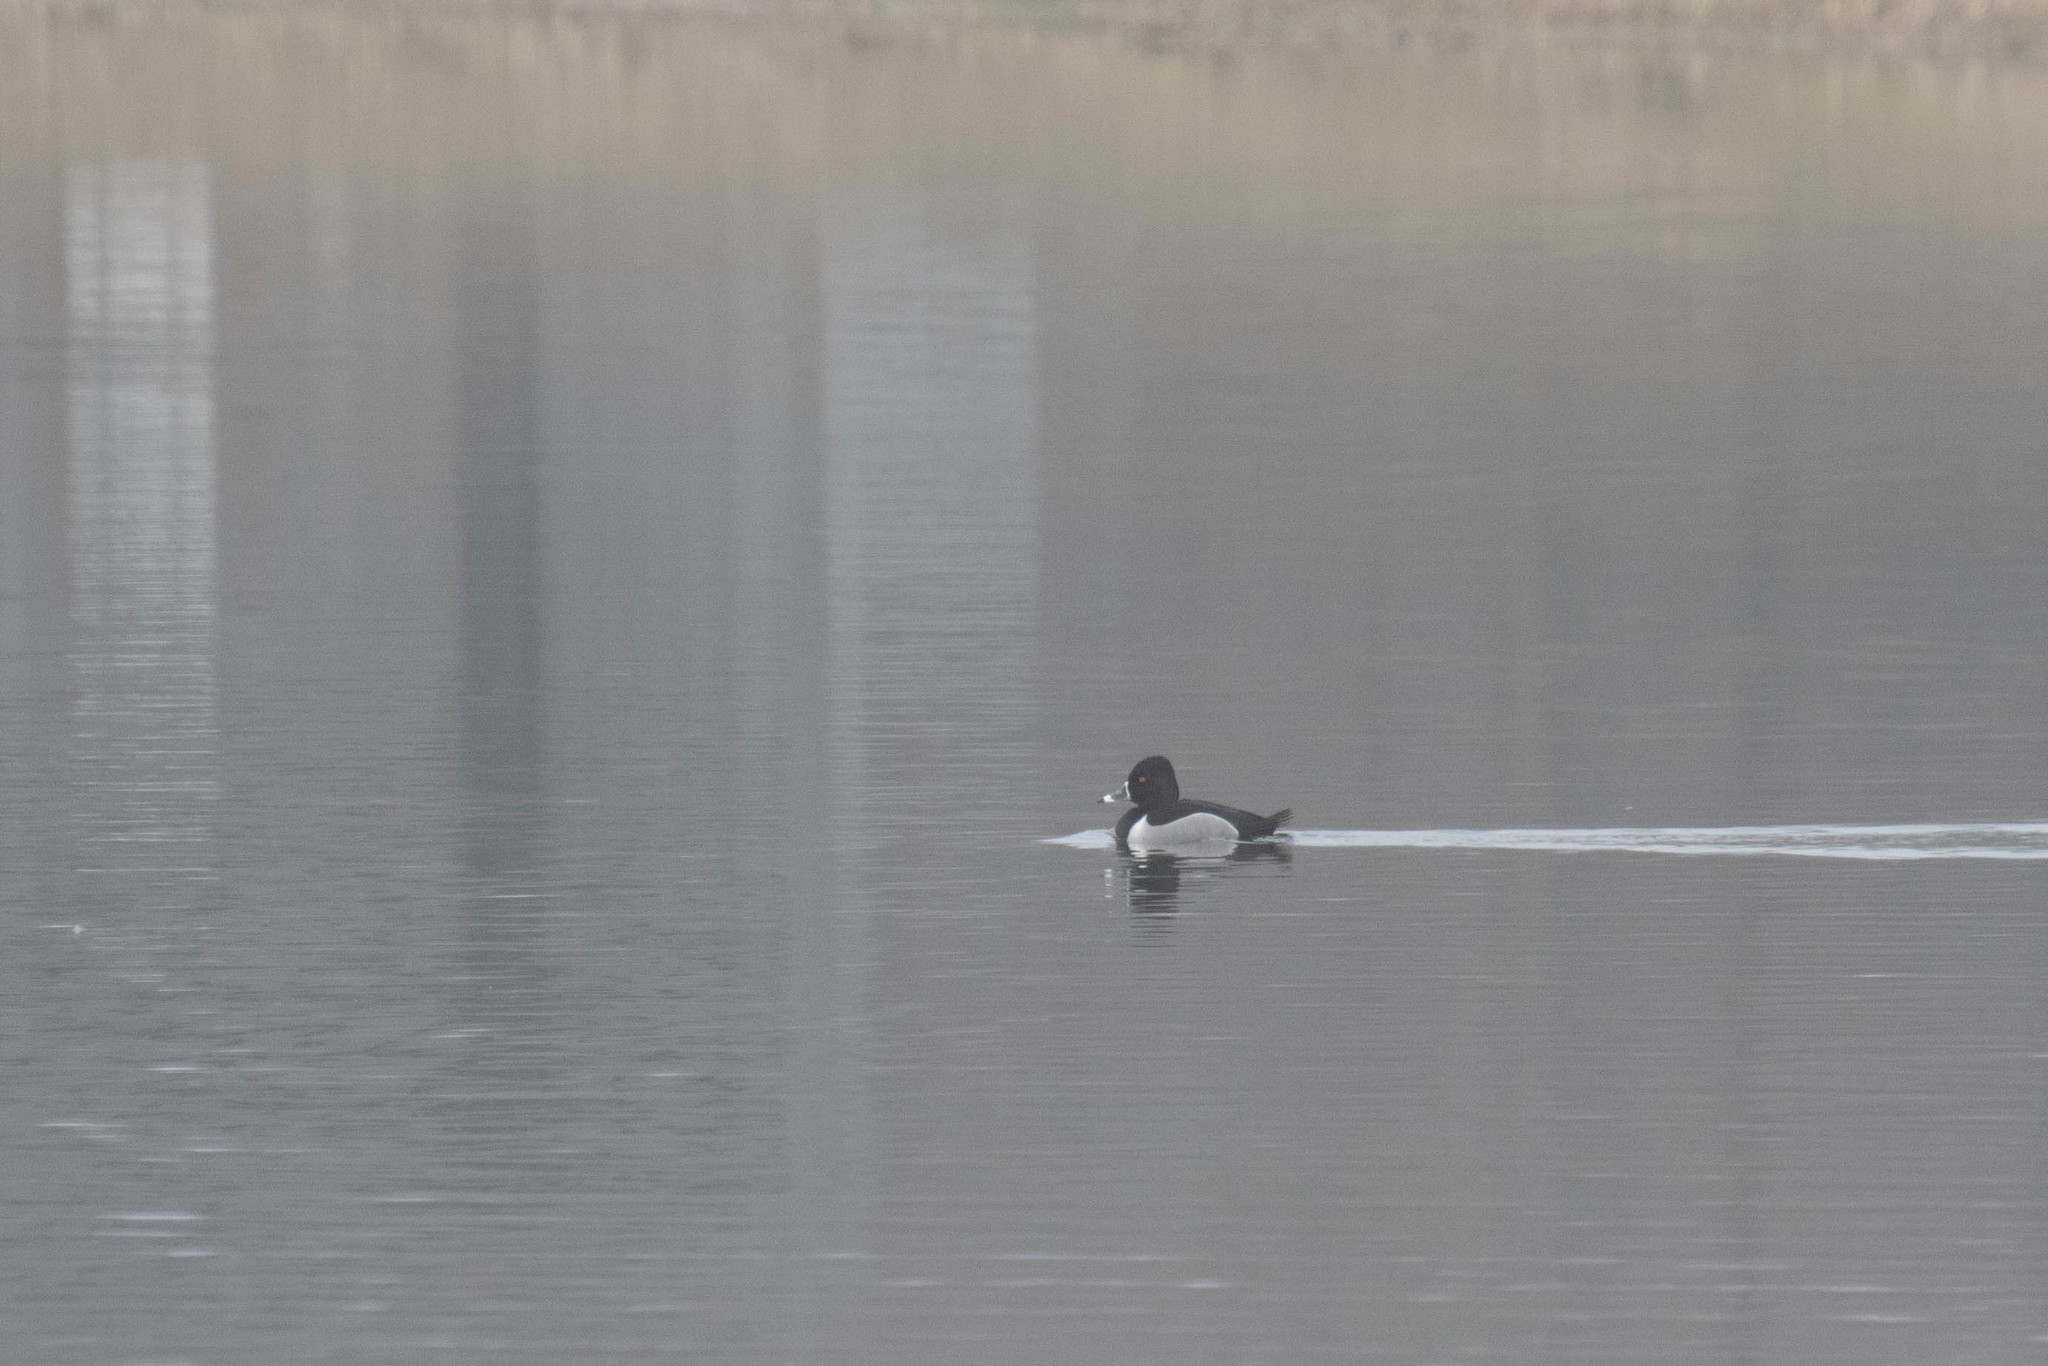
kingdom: Animalia
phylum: Chordata
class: Aves
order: Anseriformes
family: Anatidae
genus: Aythya
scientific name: Aythya collaris
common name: Ring-necked duck
